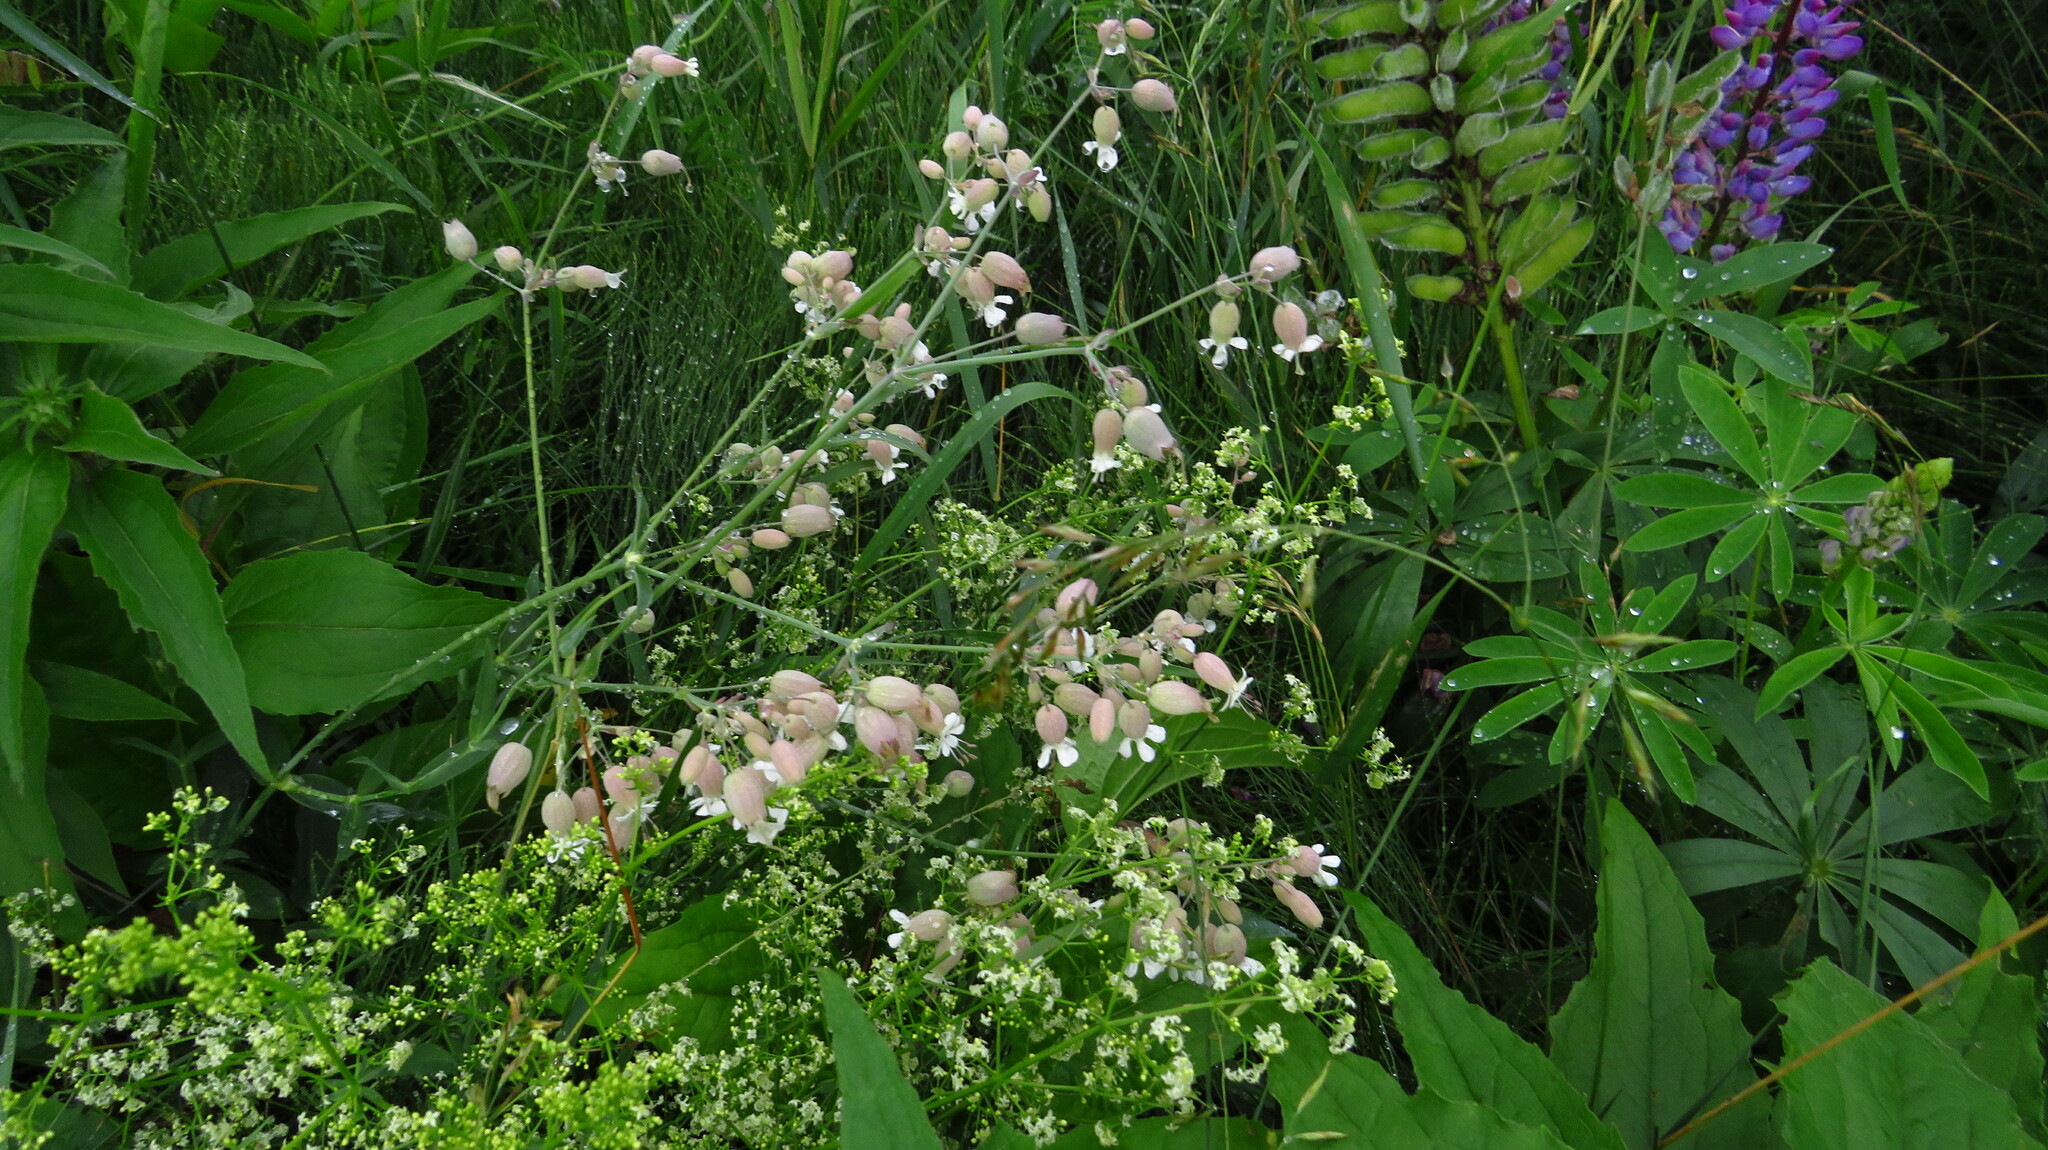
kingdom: Plantae
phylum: Tracheophyta
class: Magnoliopsida
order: Caryophyllales
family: Caryophyllaceae
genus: Silene
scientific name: Silene vulgaris
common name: Bladder campion
